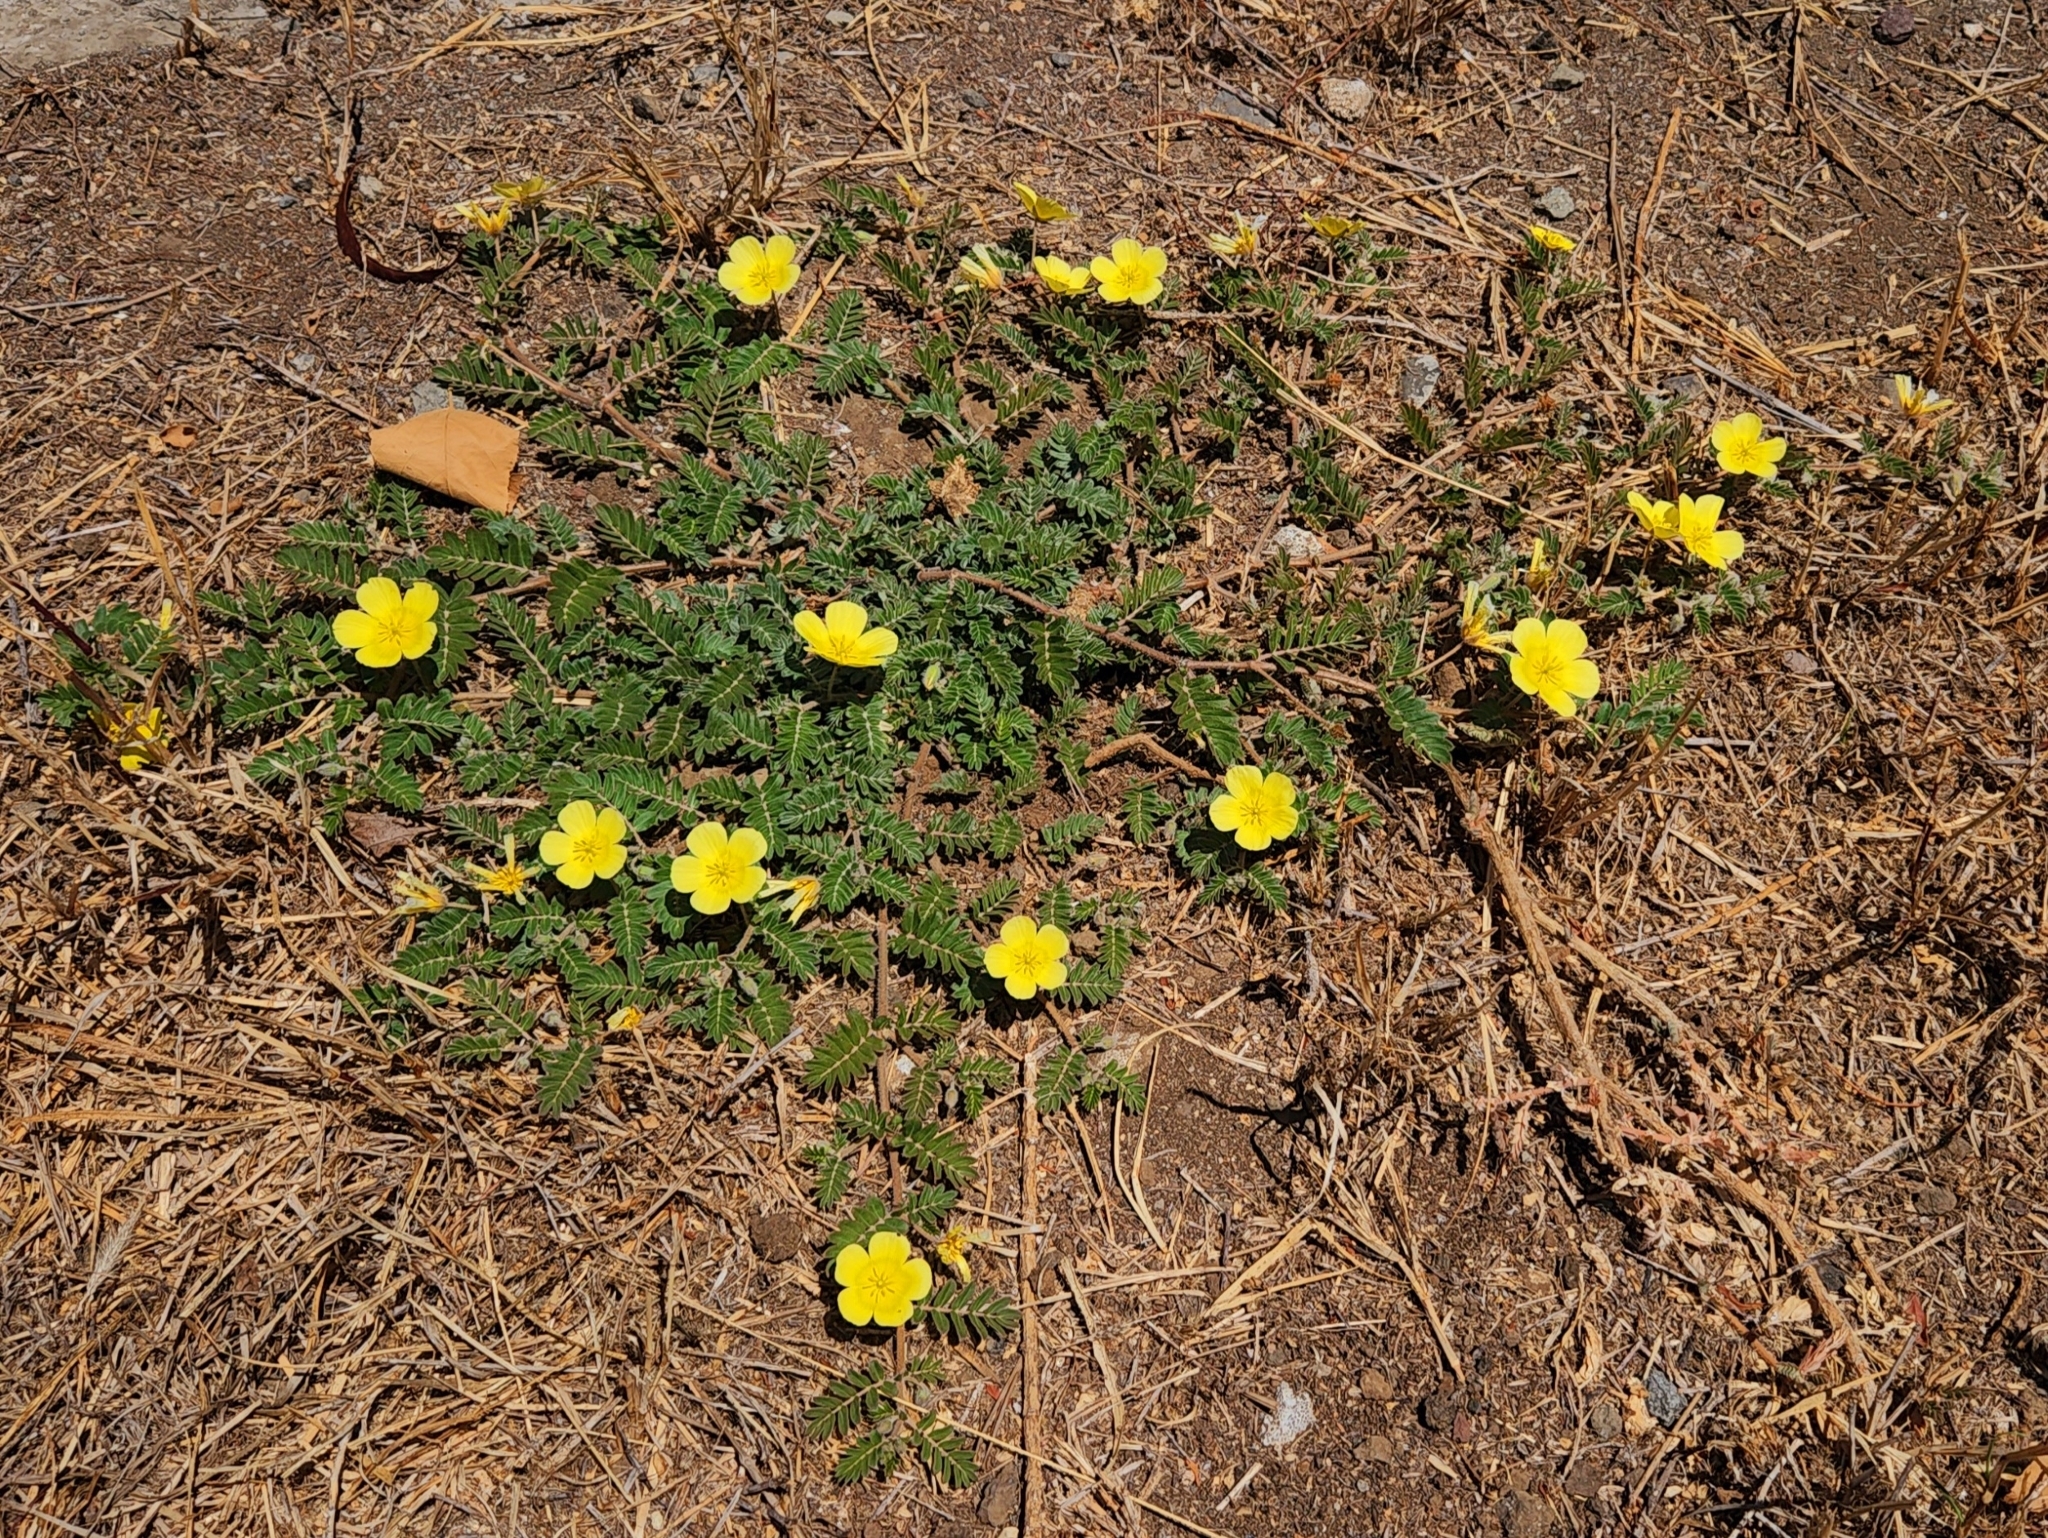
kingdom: Plantae
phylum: Tracheophyta
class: Magnoliopsida
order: Zygophyllales
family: Zygophyllaceae
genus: Tribulus
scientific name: Tribulus cistoides
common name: Jamaican feverplant
